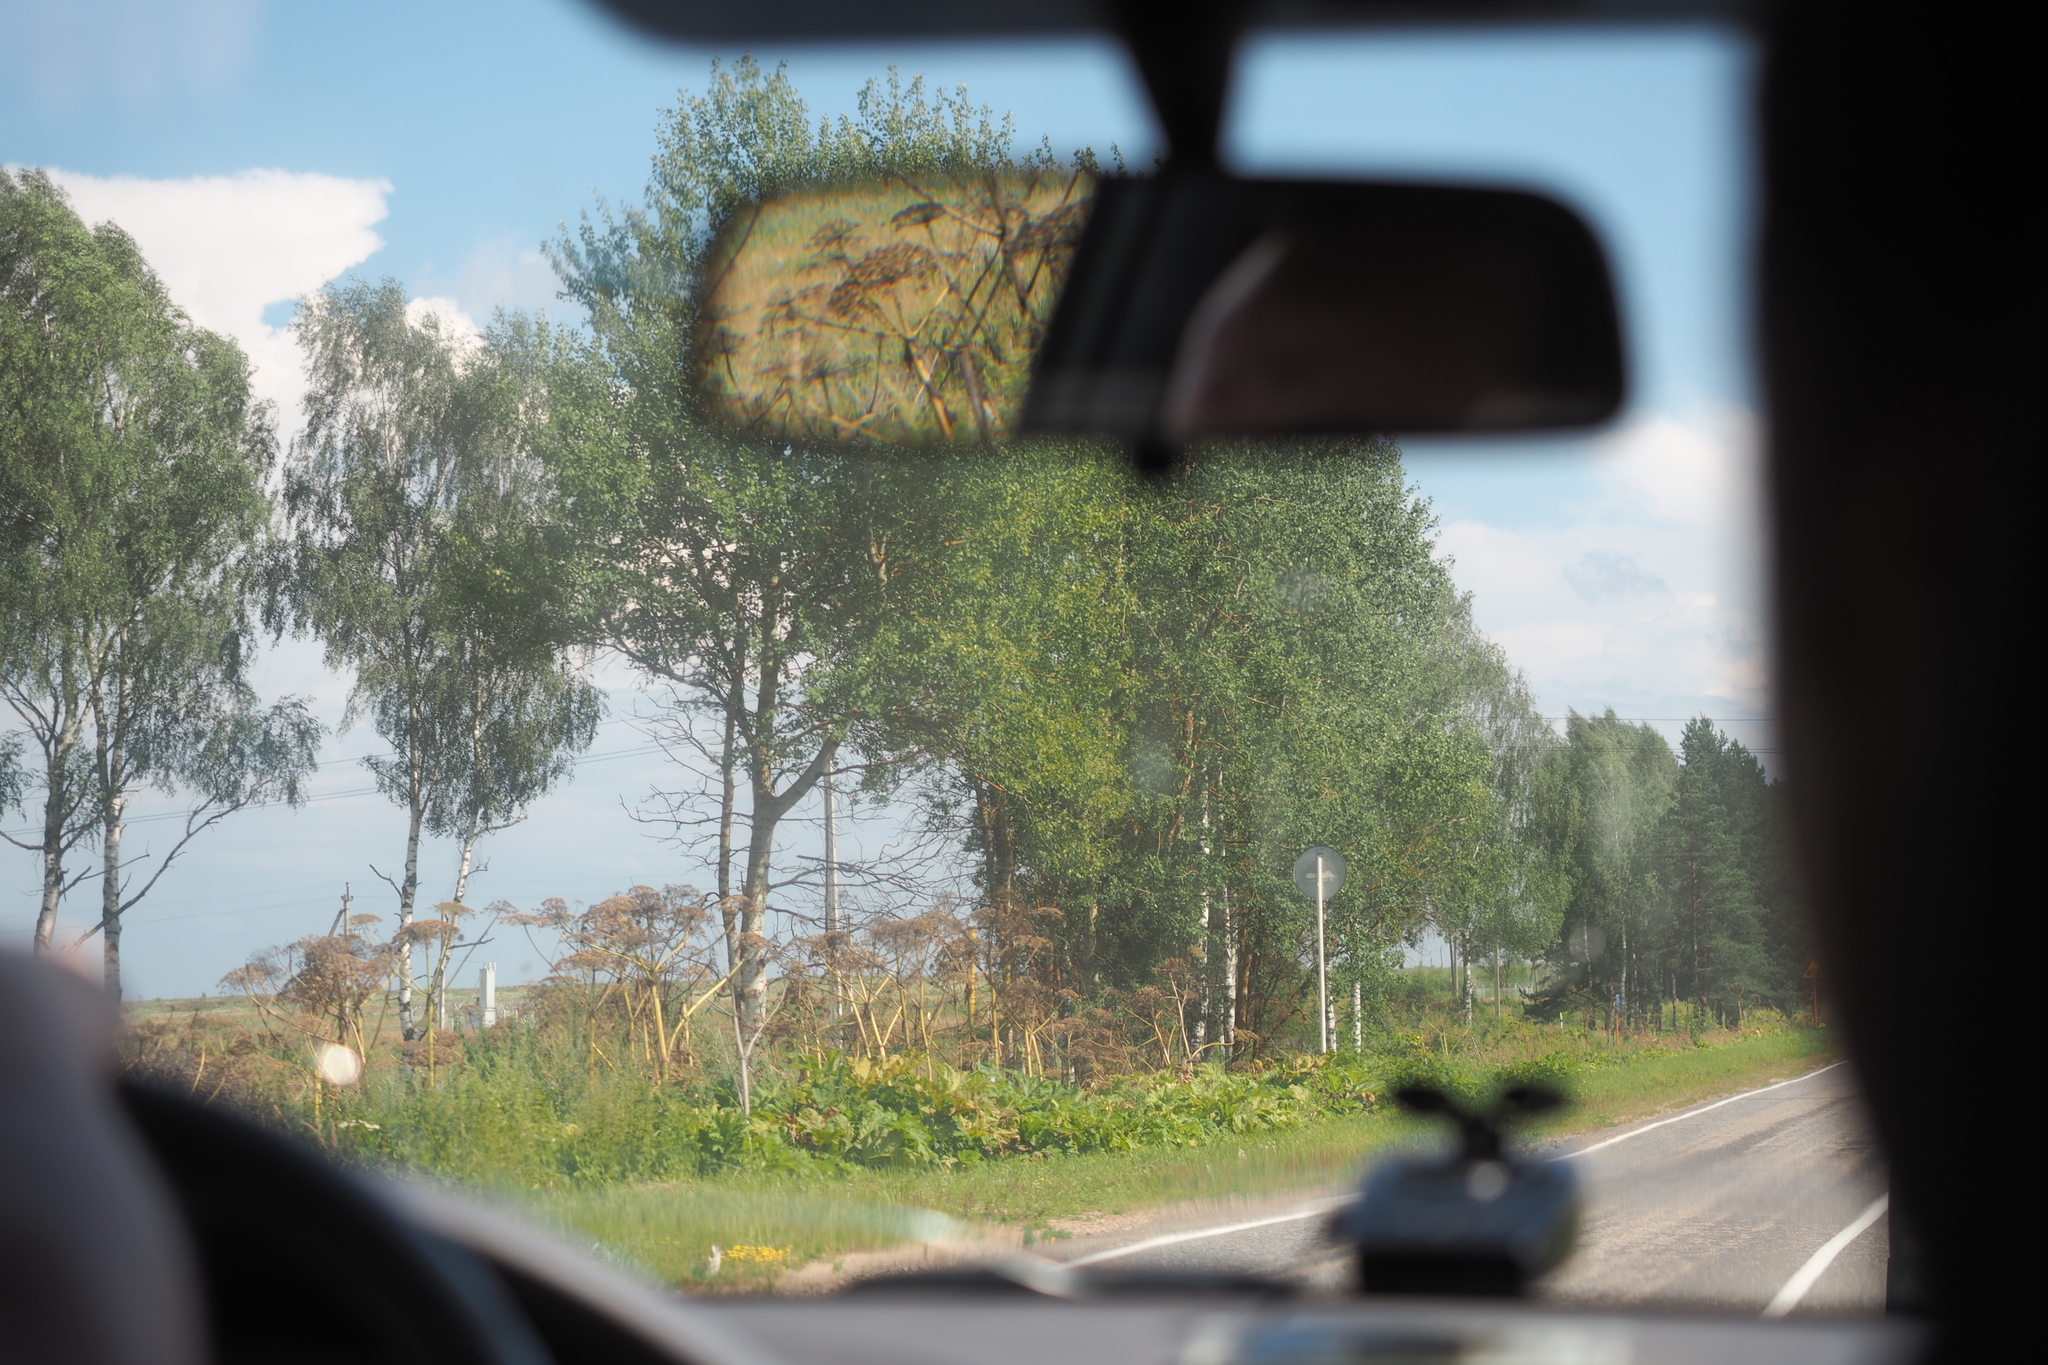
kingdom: Plantae
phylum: Tracheophyta
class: Magnoliopsida
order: Apiales
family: Apiaceae
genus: Heracleum
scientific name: Heracleum sosnowskyi
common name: Sosnowsky's hogweed
